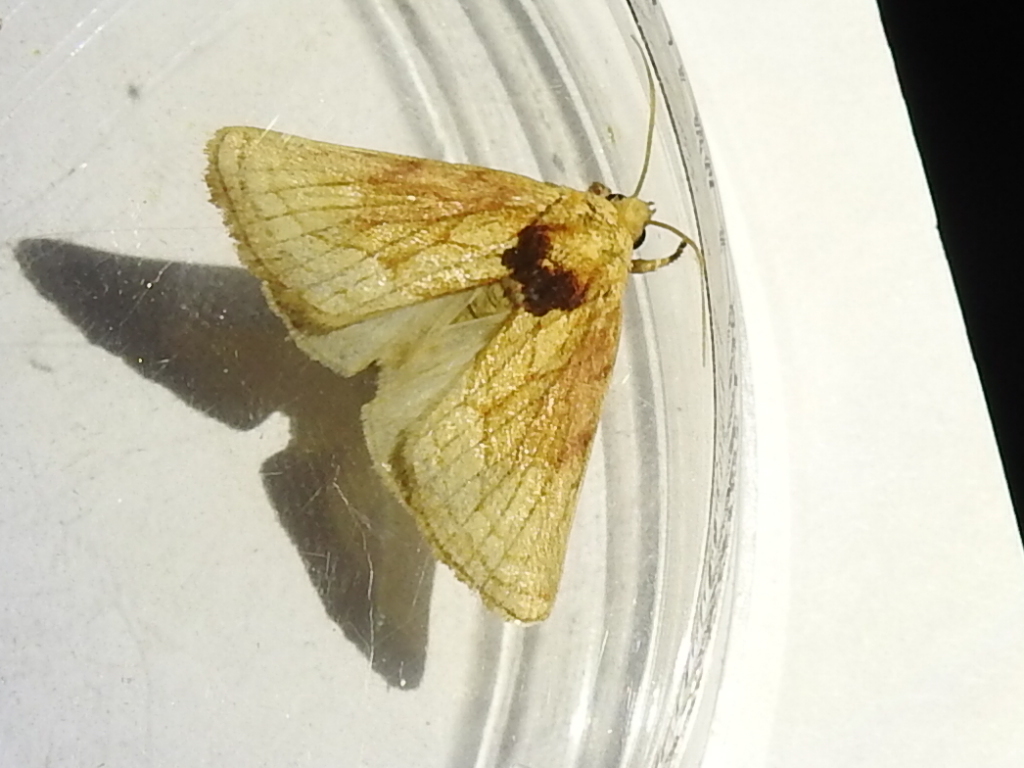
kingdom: Animalia
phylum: Arthropoda
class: Insecta
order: Lepidoptera
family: Noctuidae
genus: Nocloa
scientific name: Nocloa duplicatus
